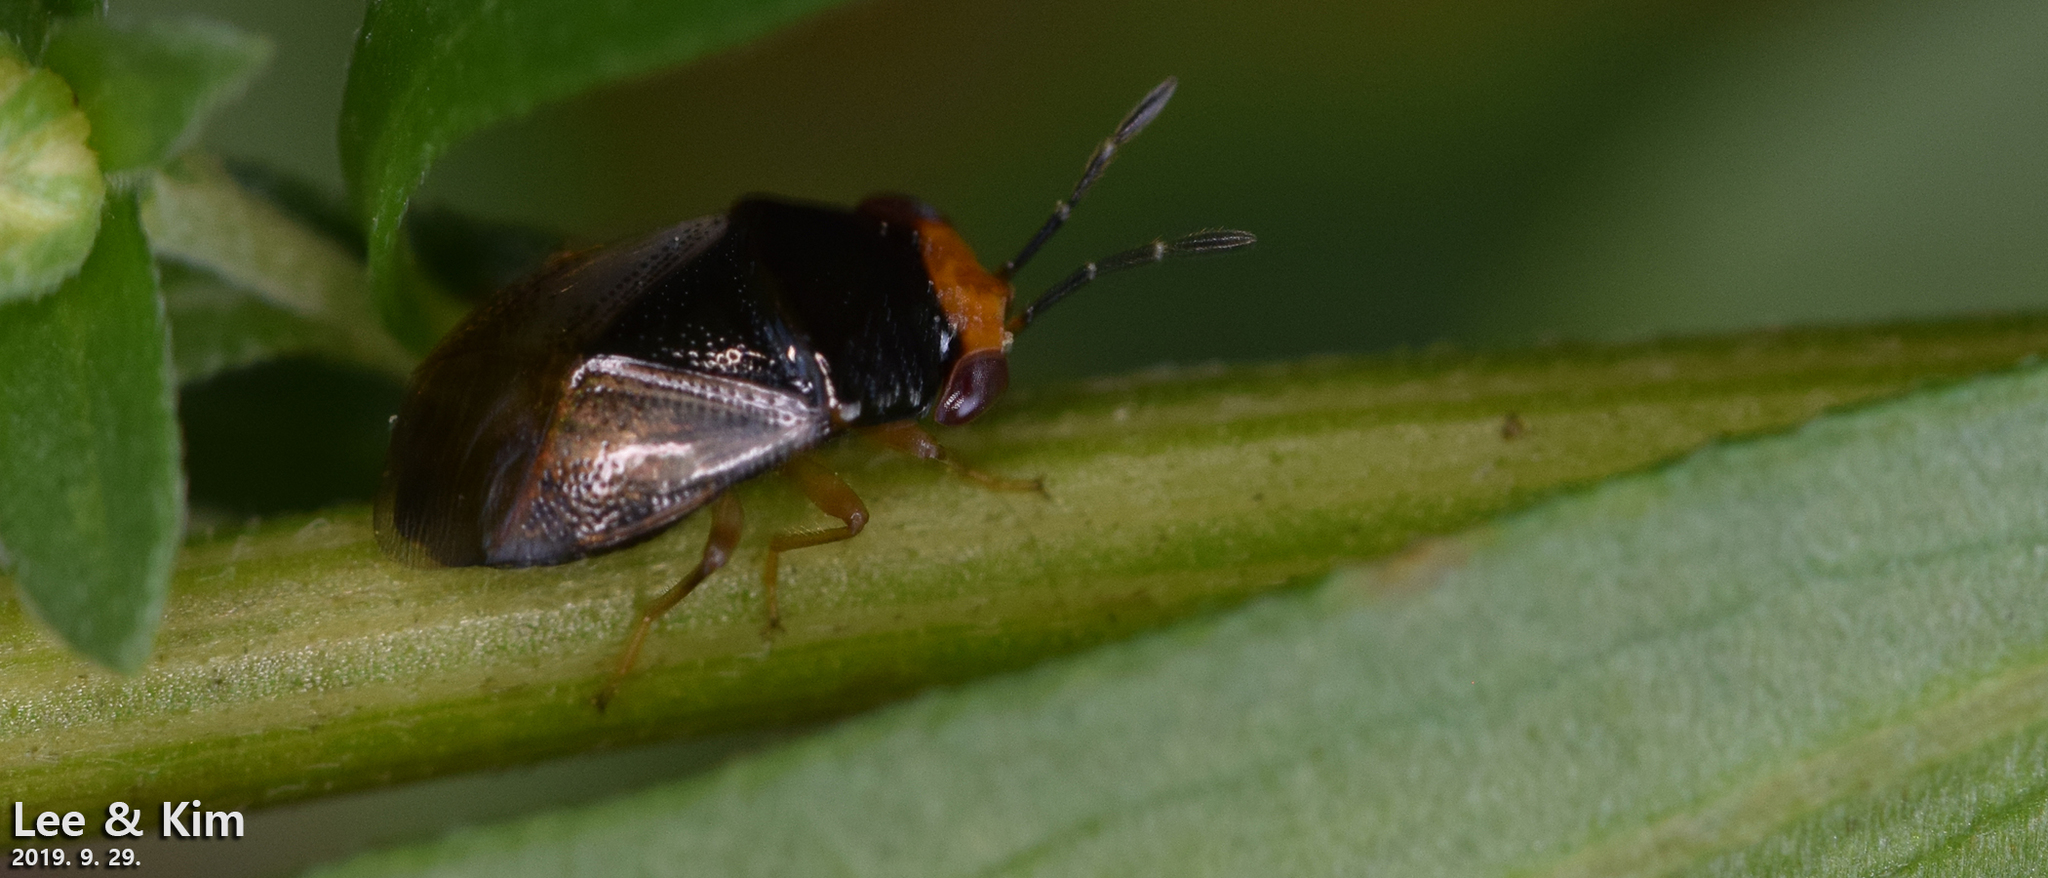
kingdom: Animalia
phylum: Arthropoda
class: Insecta
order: Hemiptera
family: Geocoridae
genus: Geocoris
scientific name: Geocoris varius
